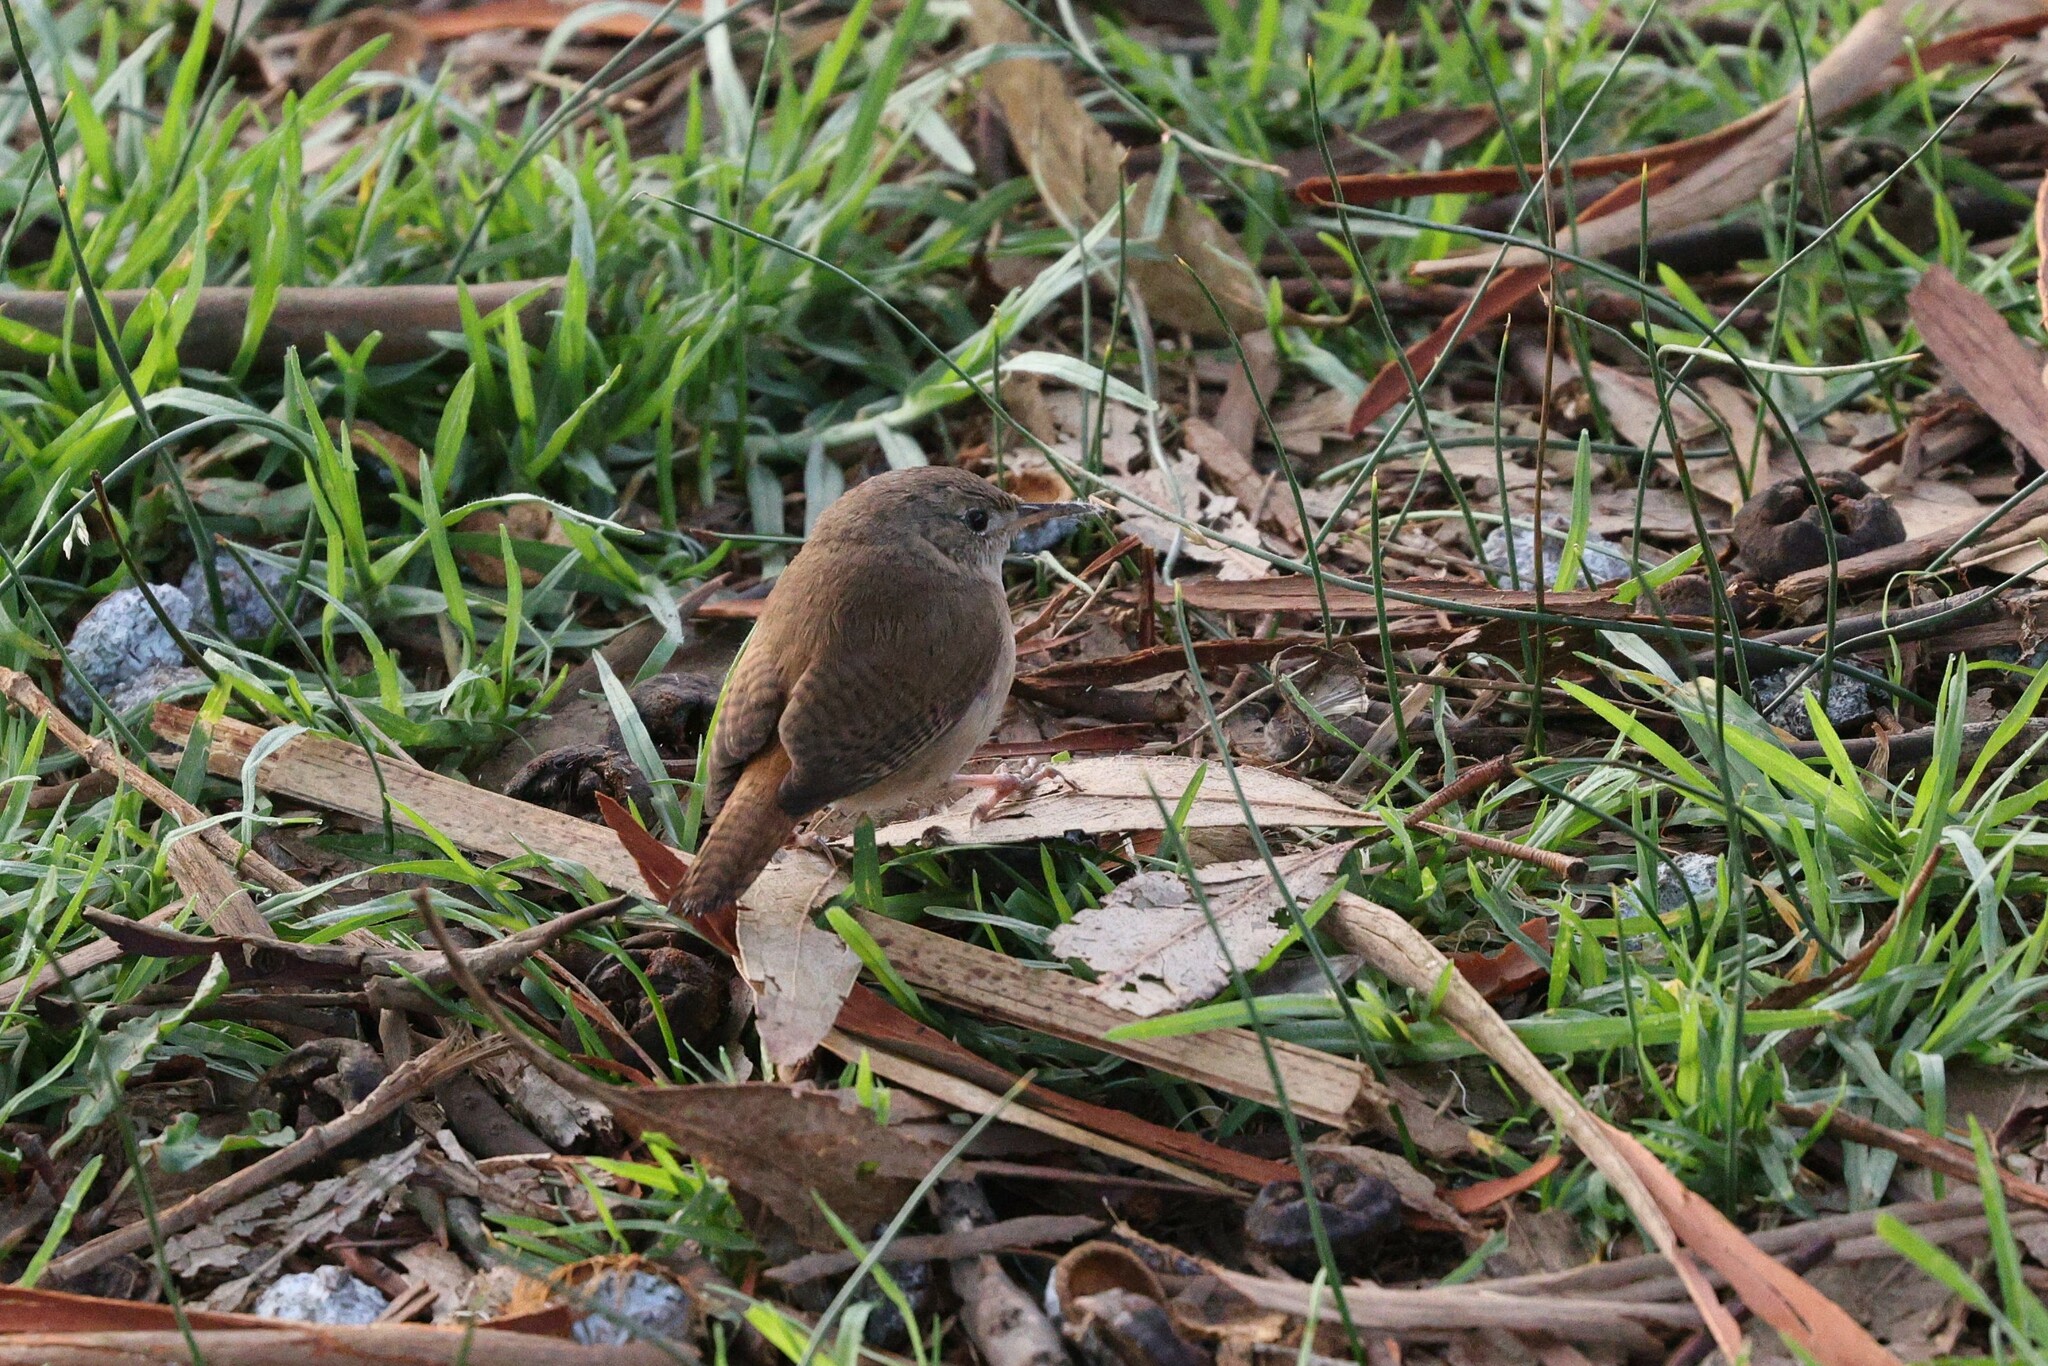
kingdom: Animalia
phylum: Chordata
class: Aves
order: Passeriformes
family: Troglodytidae
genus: Troglodytes
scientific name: Troglodytes aedon
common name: House wren
